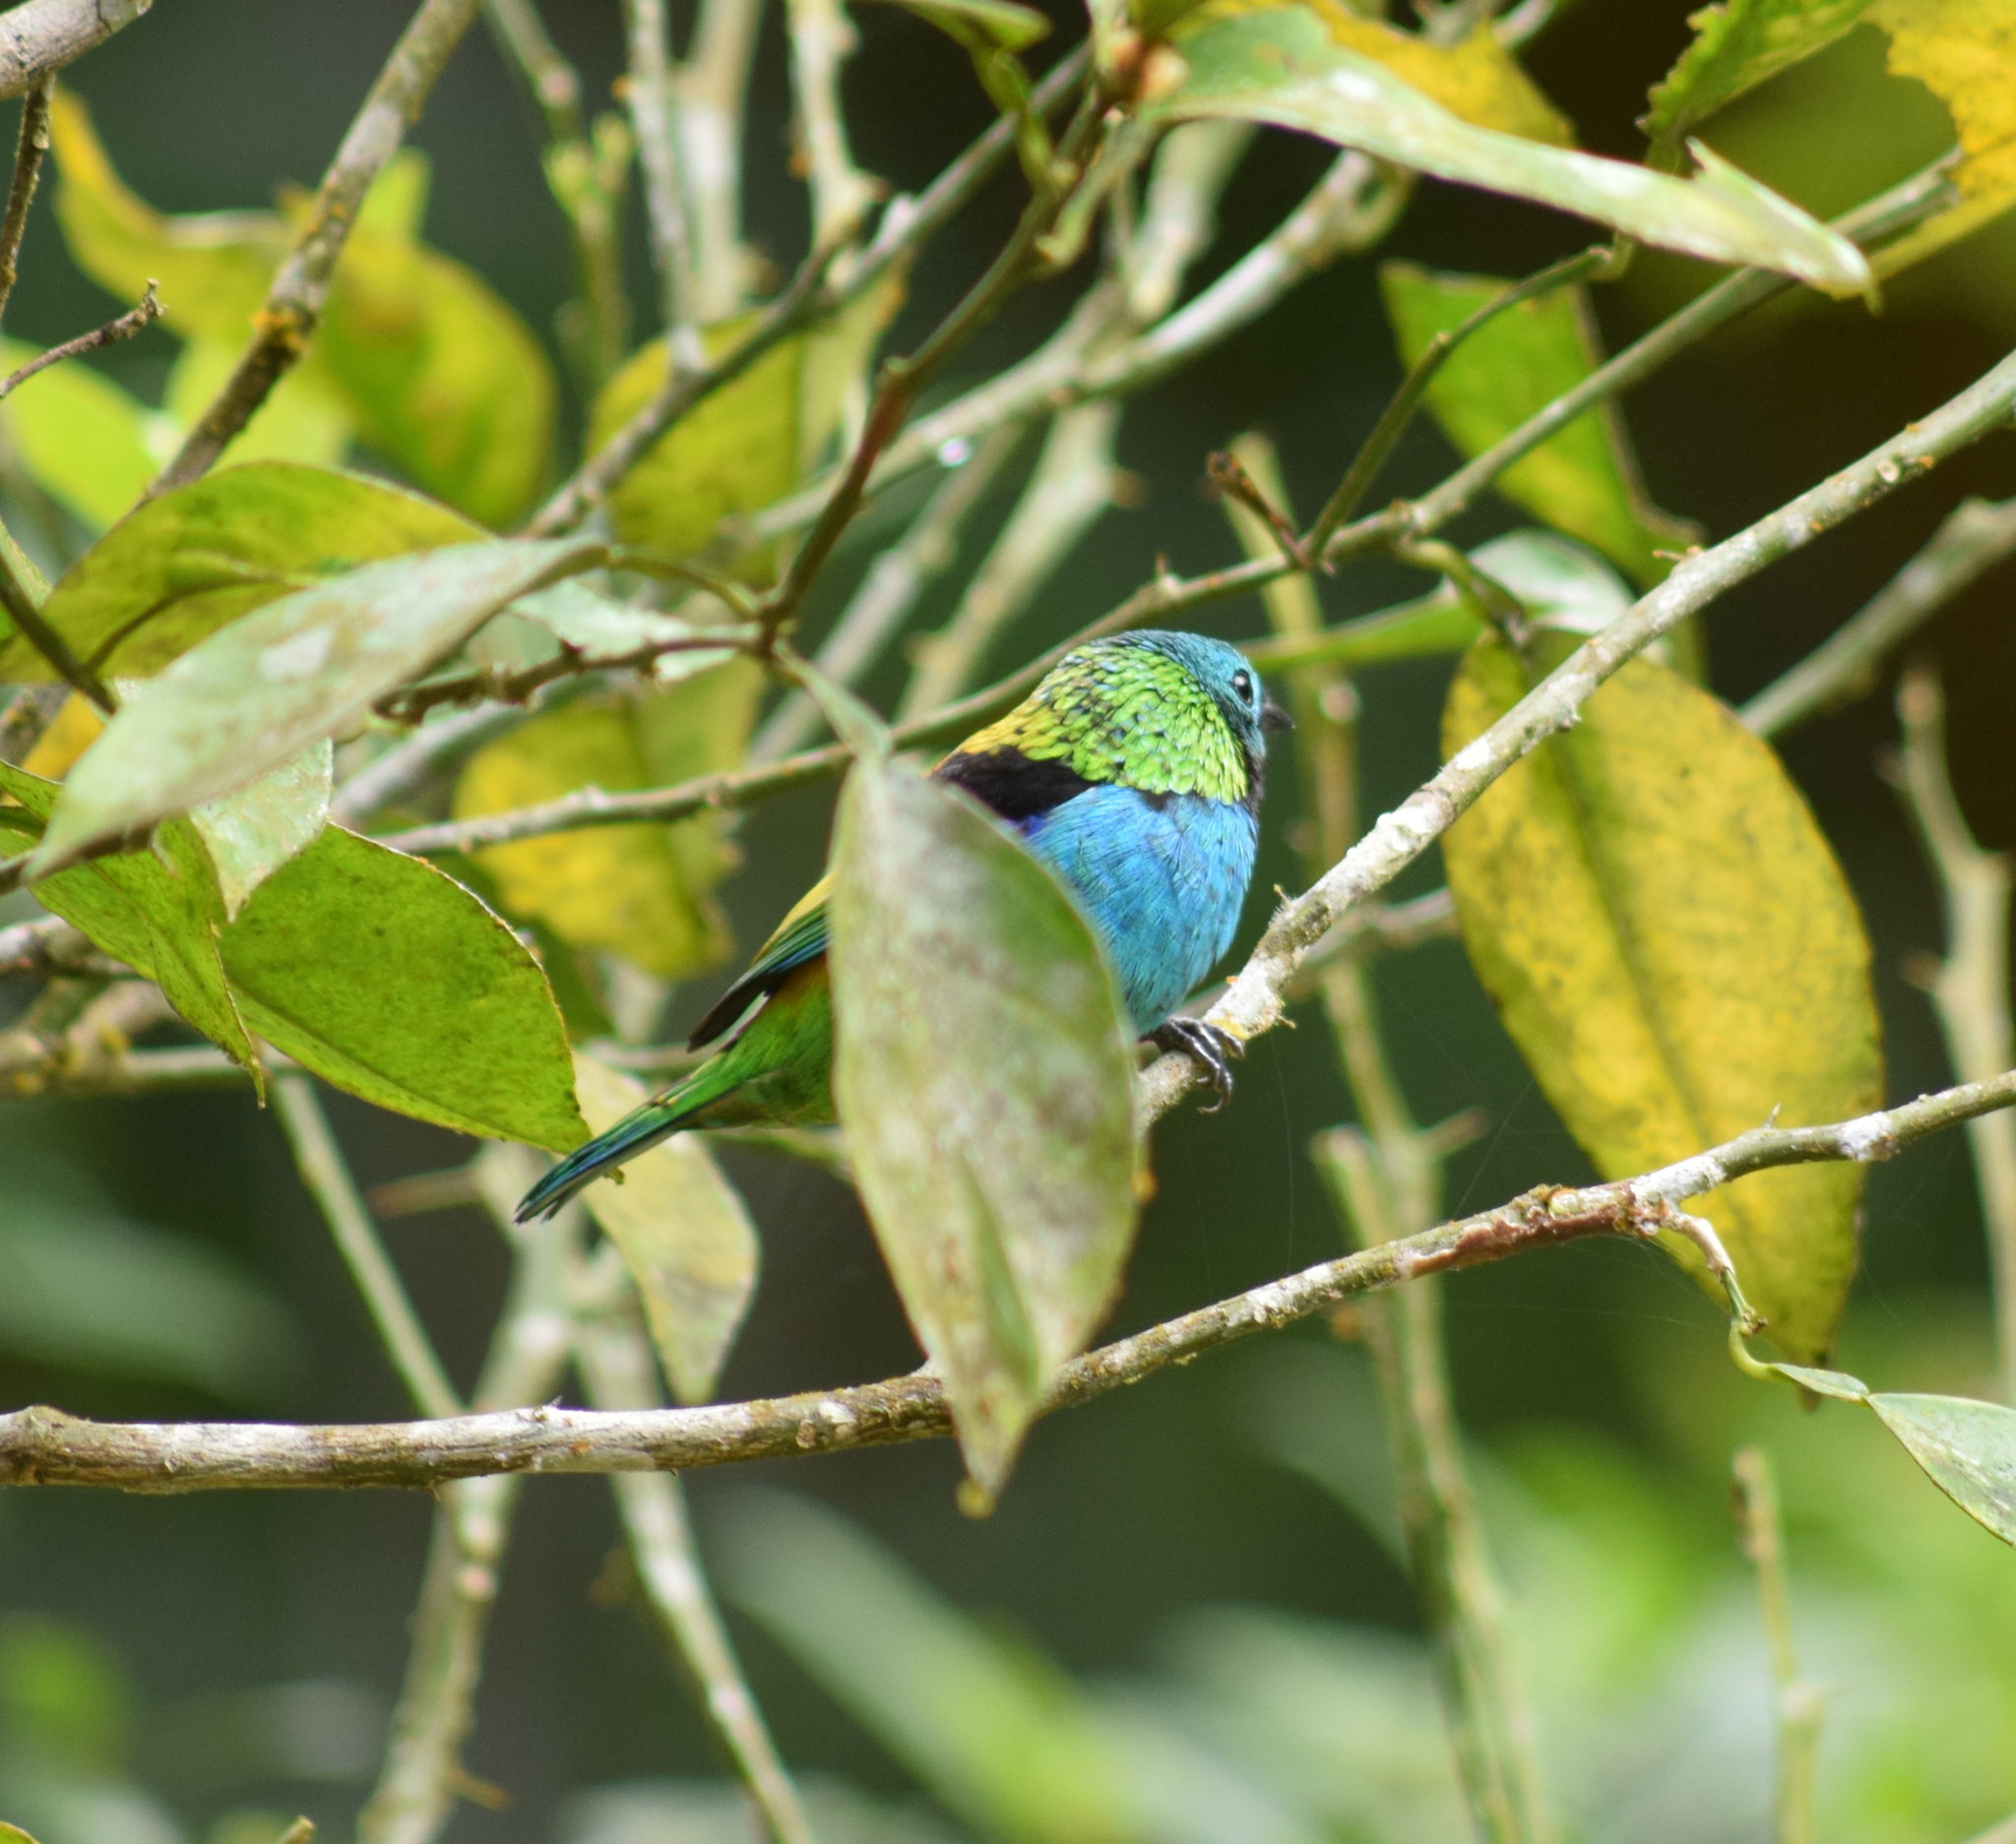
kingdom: Animalia
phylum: Chordata
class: Aves
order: Passeriformes
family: Thraupidae
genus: Tangara
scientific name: Tangara seledon
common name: Green-headed tanager
